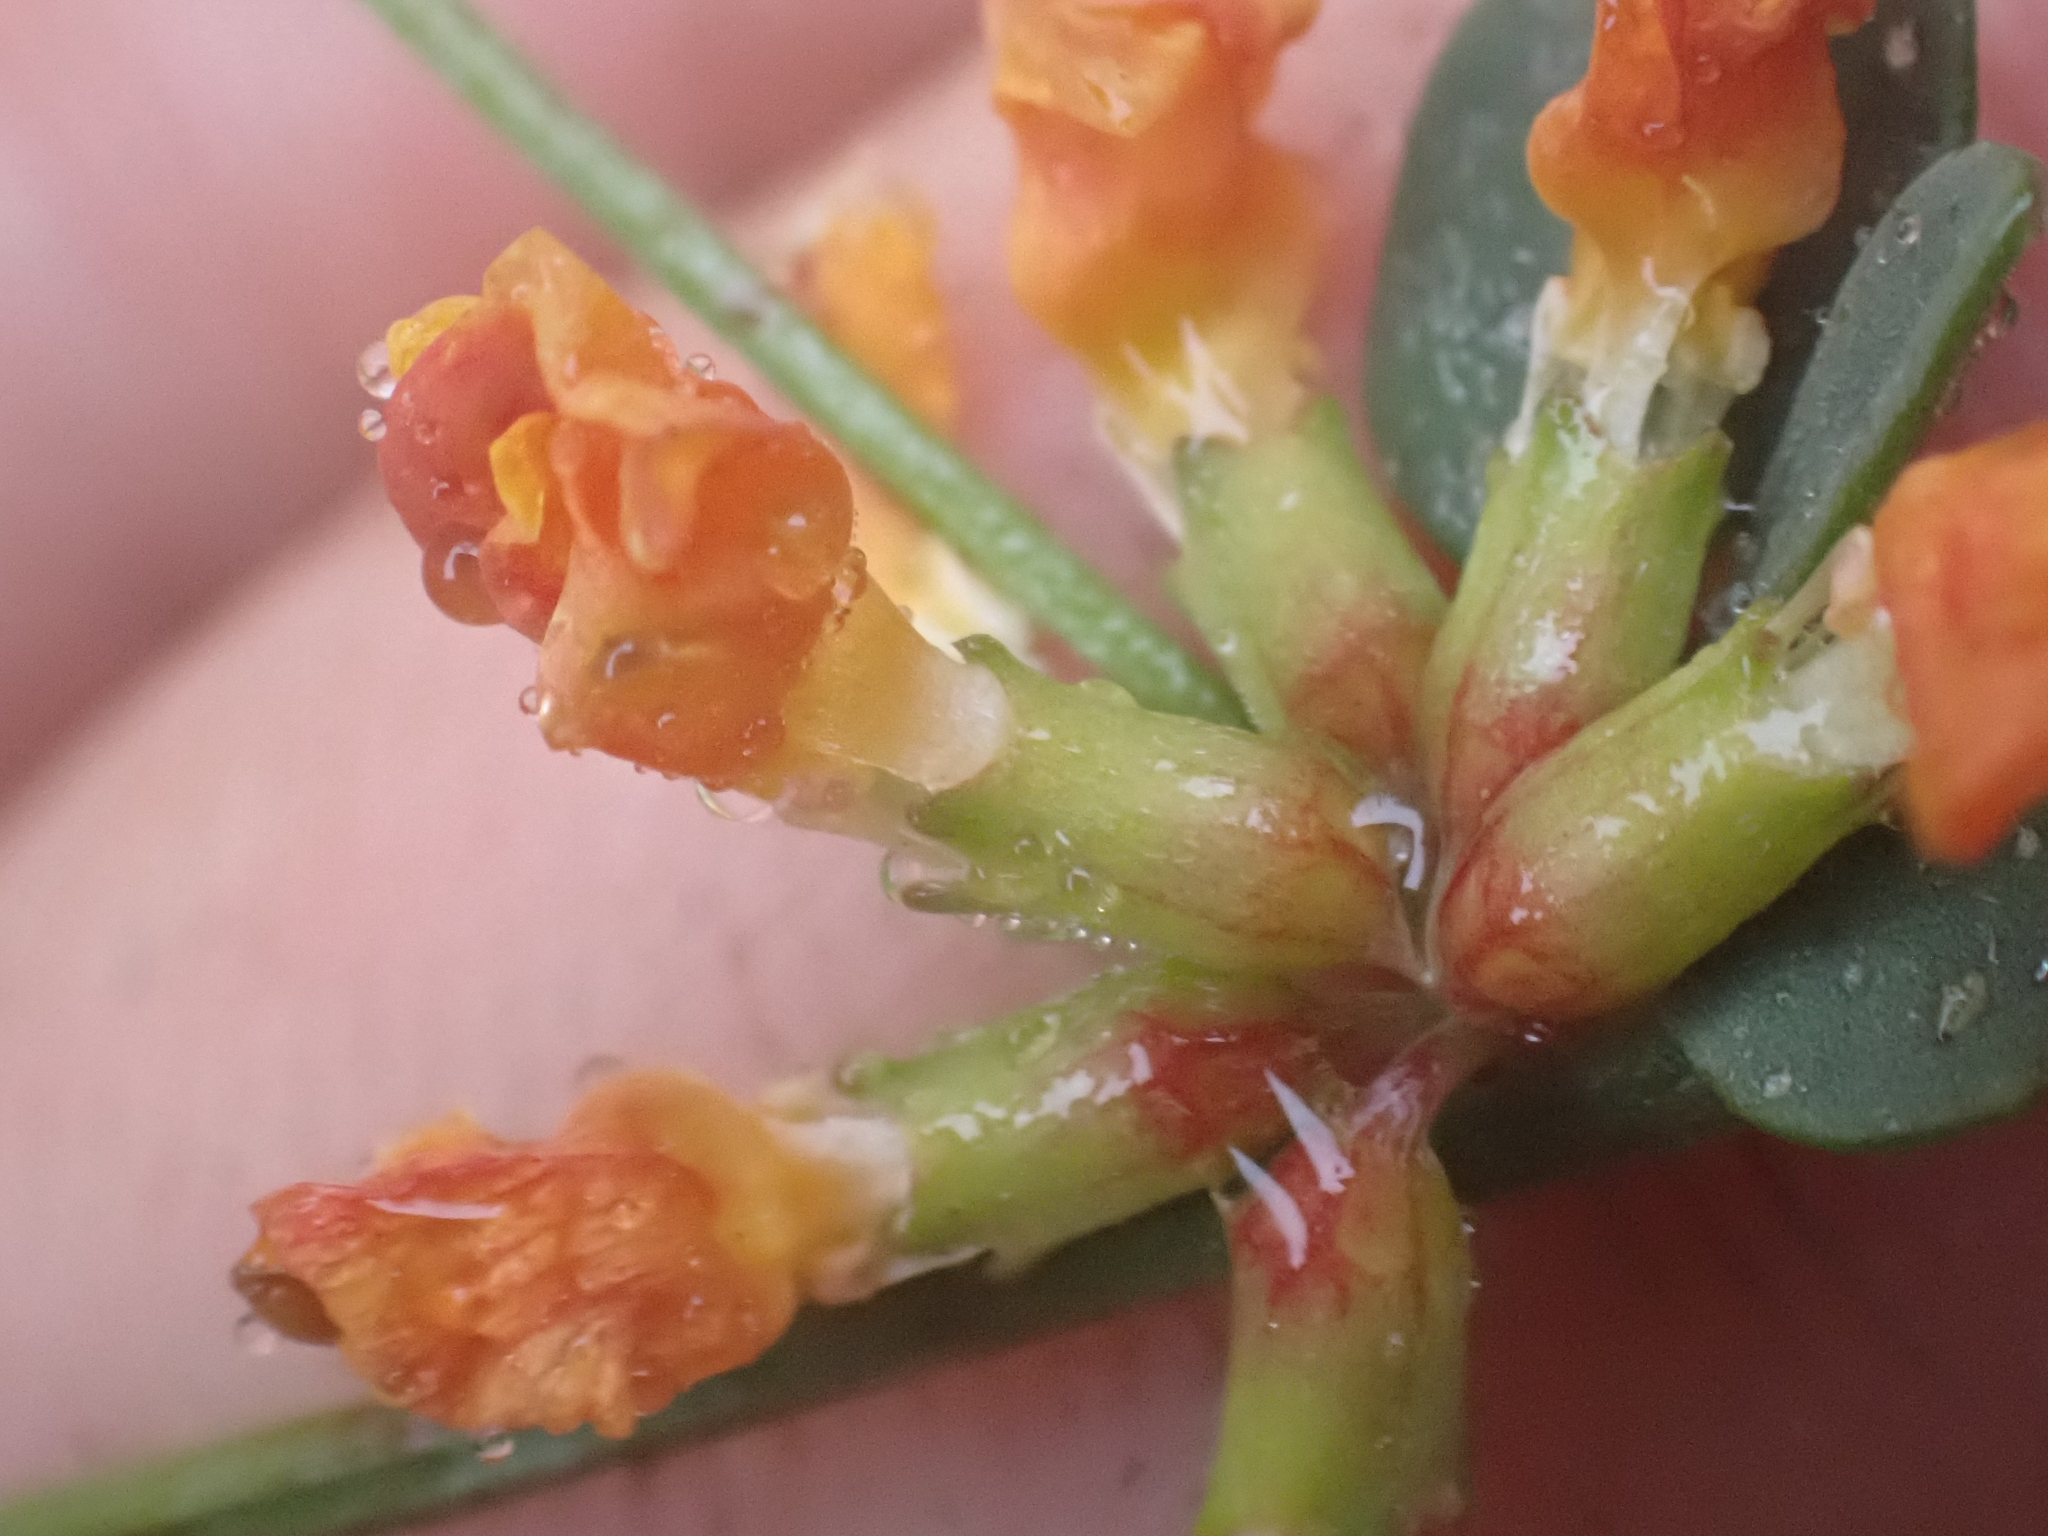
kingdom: Plantae
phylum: Tracheophyta
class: Magnoliopsida
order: Fabales
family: Fabaceae
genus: Acmispon
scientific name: Acmispon junceus
